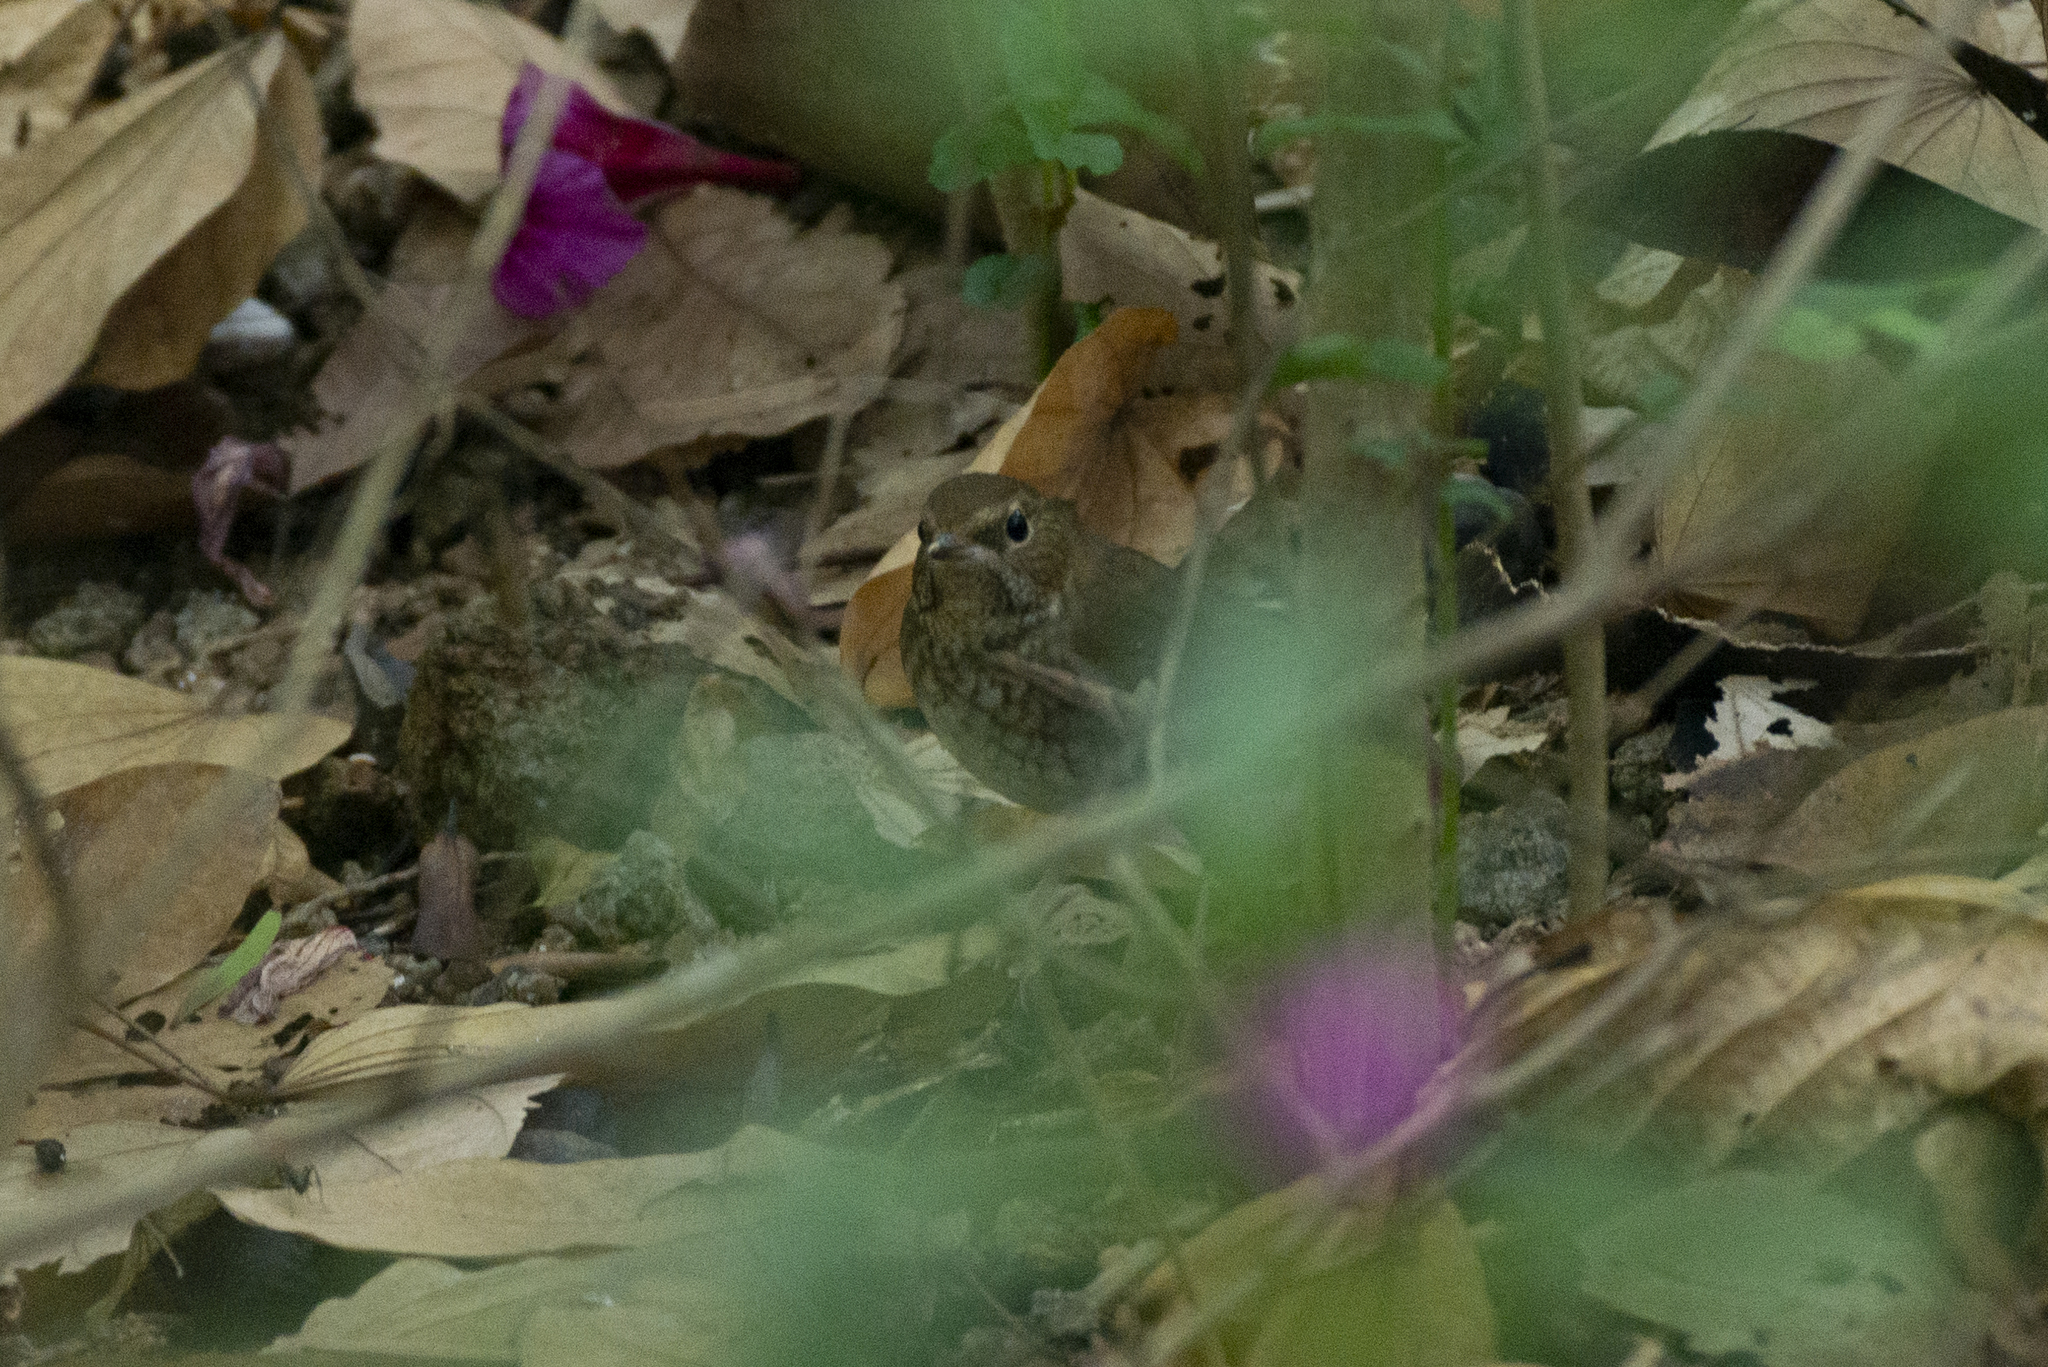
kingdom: Animalia
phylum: Chordata
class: Aves
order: Passeriformes
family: Muscicapidae
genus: Larvivora
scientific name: Larvivora sibilans
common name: Rufous-tailed robin
